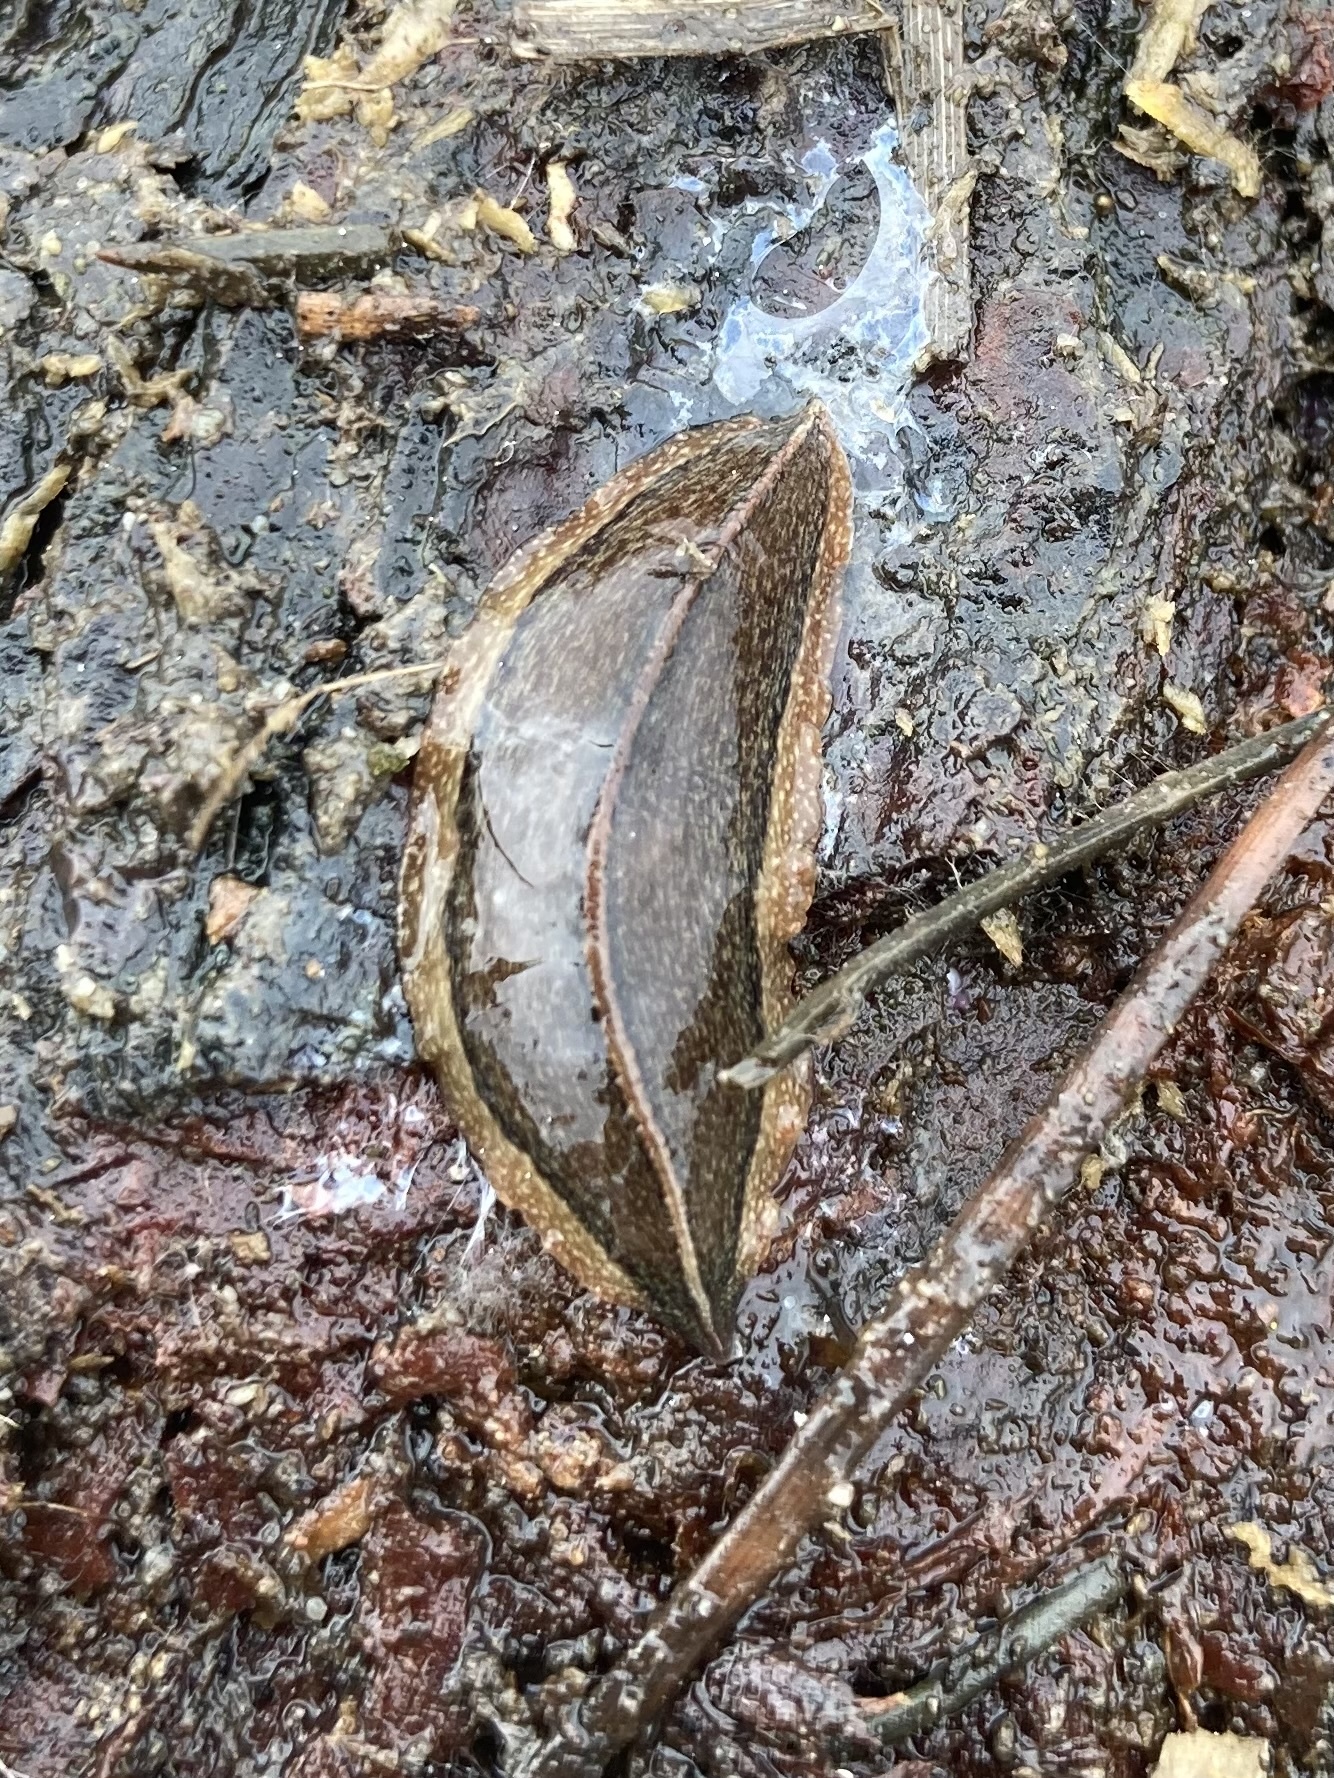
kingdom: Animalia
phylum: Platyhelminthes
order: Tricladida
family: Geoplanidae
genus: Newzealandia
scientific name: Newzealandia graffii
